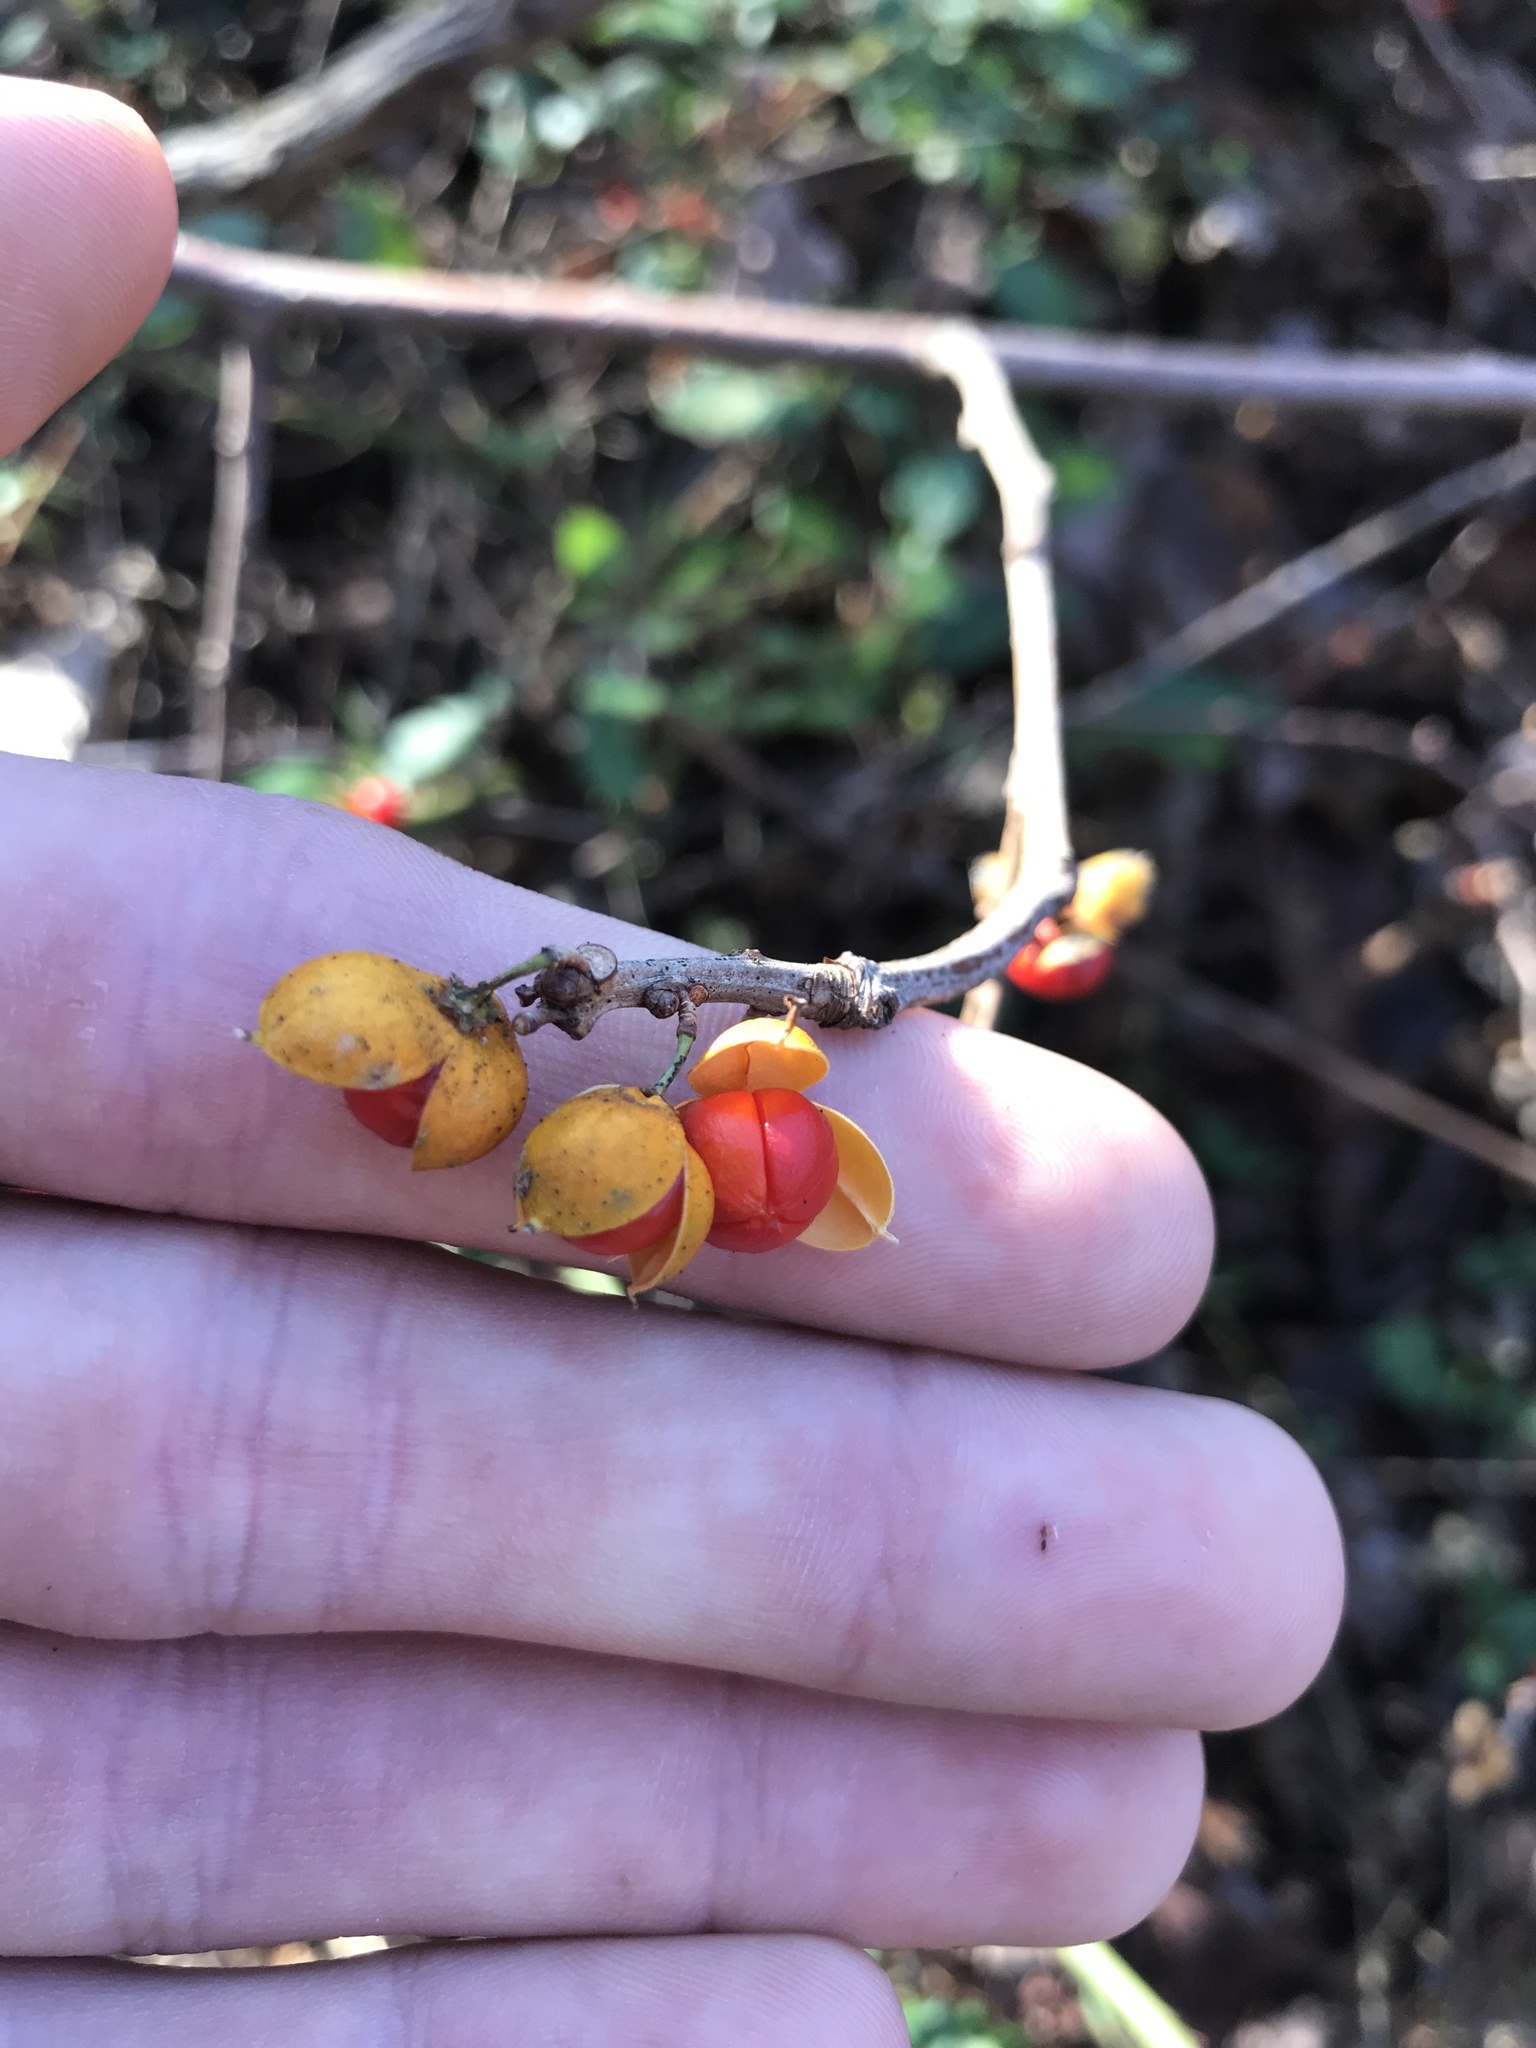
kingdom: Plantae
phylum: Tracheophyta
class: Magnoliopsida
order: Celastrales
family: Celastraceae
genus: Celastrus
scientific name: Celastrus orbiculatus
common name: Oriental bittersweet
